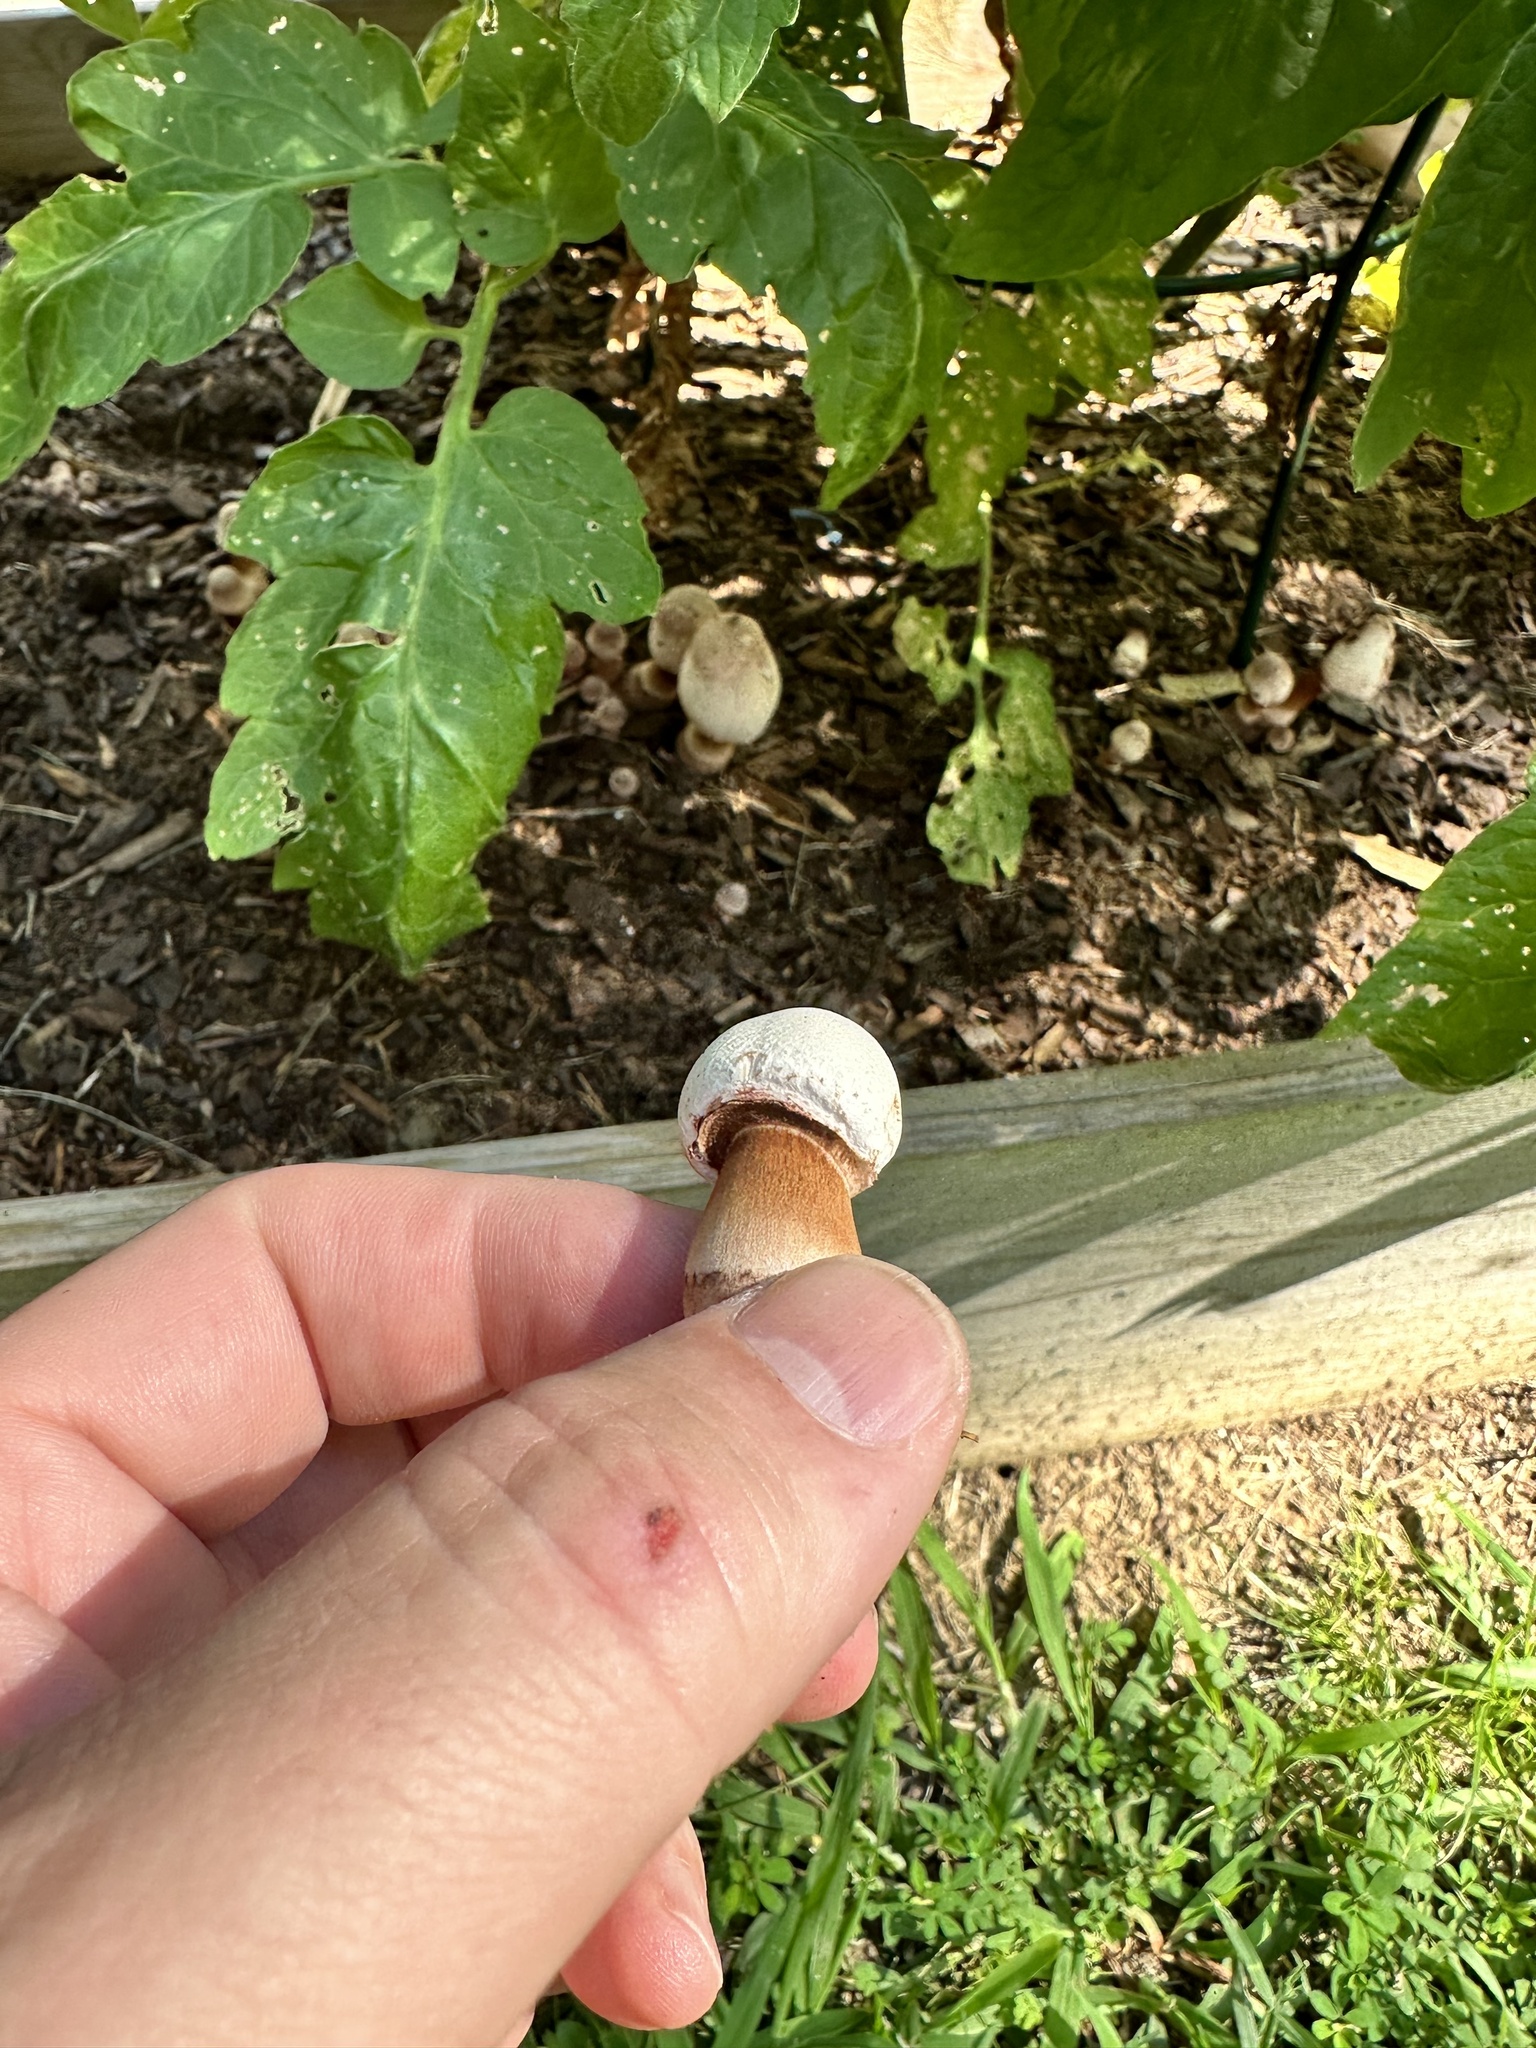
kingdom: Fungi
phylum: Basidiomycota
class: Agaricomycetes
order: Agaricales
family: Agaricaceae
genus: Leucoagaricus
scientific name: Leucoagaricus americanus
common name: Reddening lepiota
